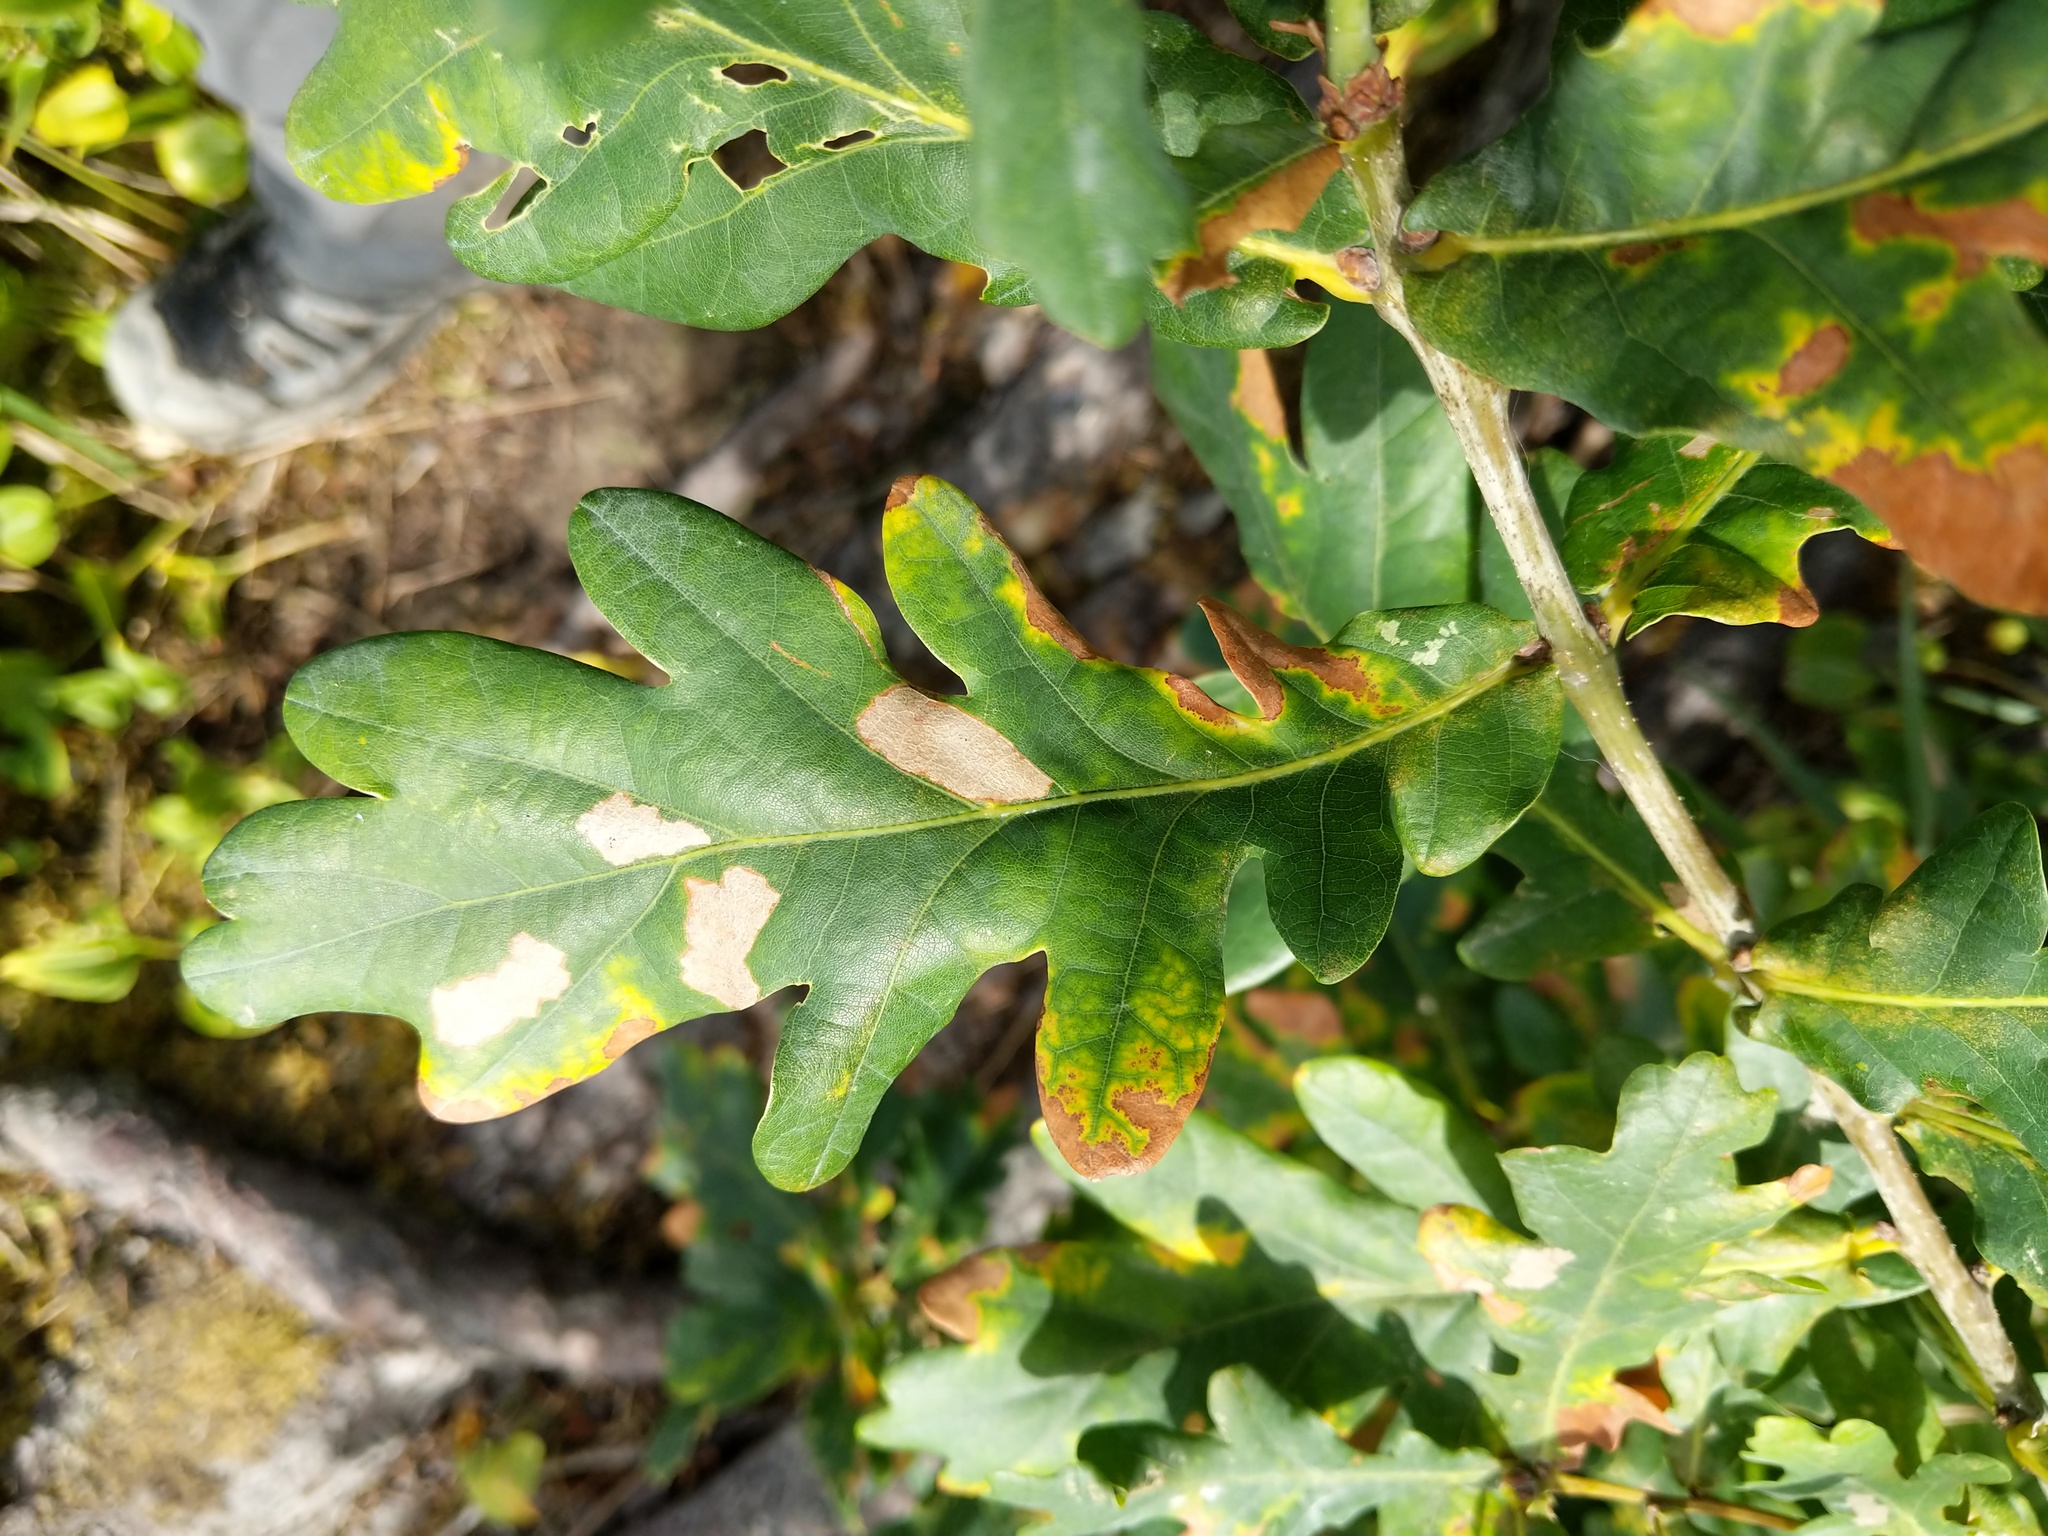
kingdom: Plantae
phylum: Tracheophyta
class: Magnoliopsida
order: Fagales
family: Fagaceae
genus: Quercus
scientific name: Quercus robur
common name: Pedunculate oak
